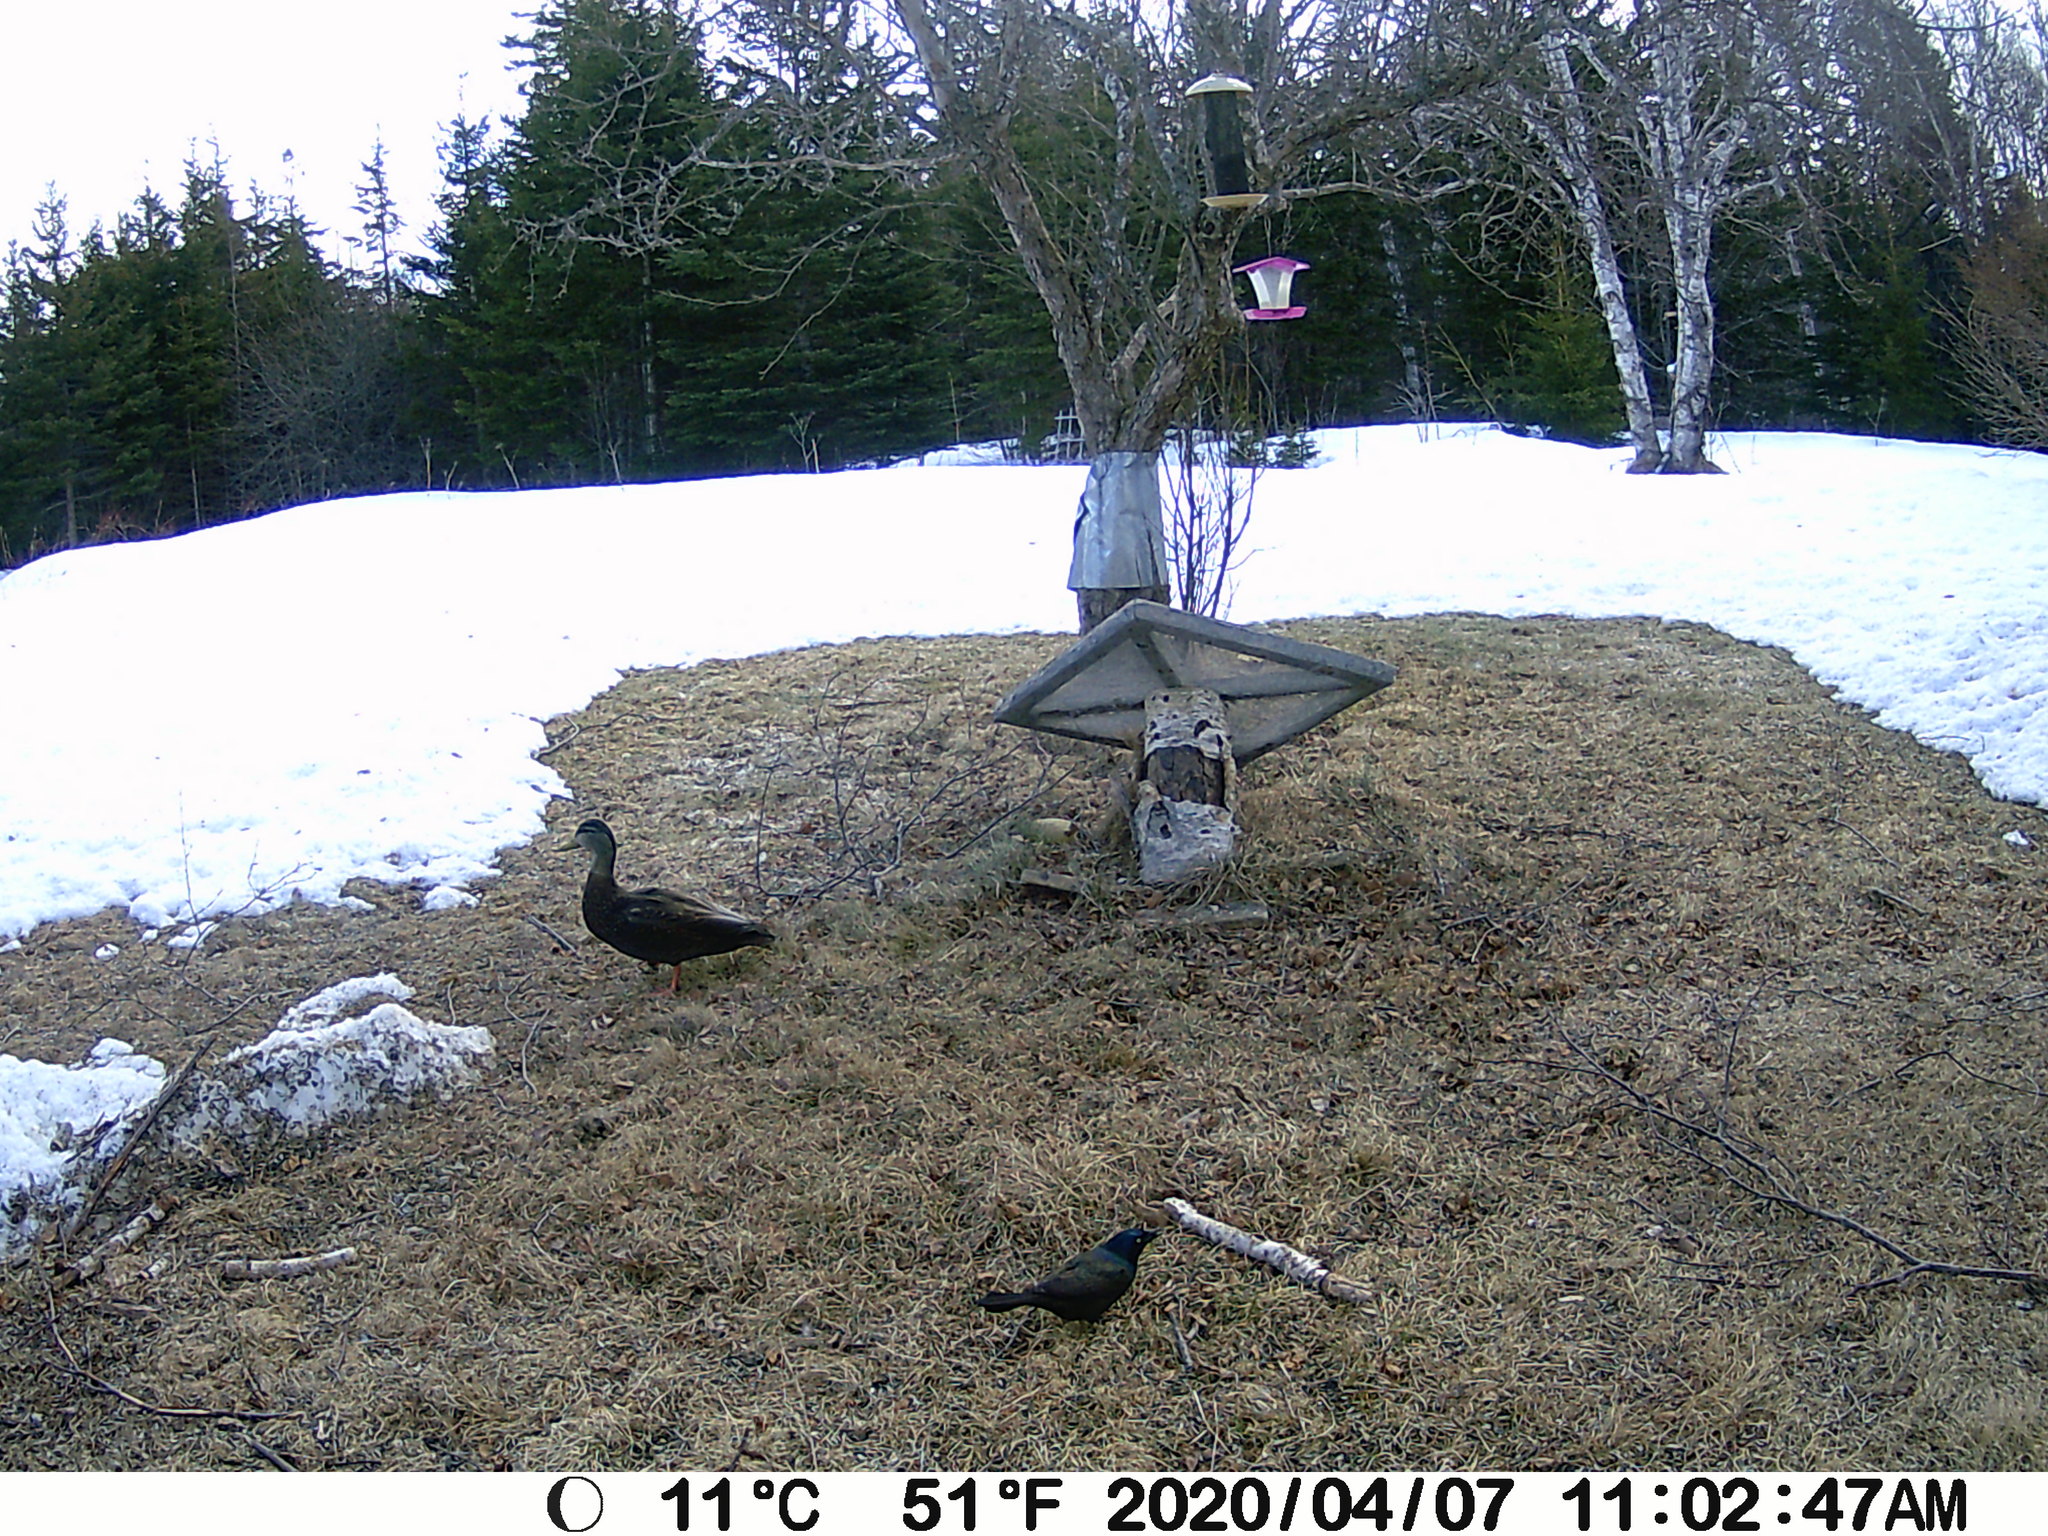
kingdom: Animalia
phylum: Chordata
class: Aves
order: Anseriformes
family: Anatidae
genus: Anas
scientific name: Anas rubripes
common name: American black duck
